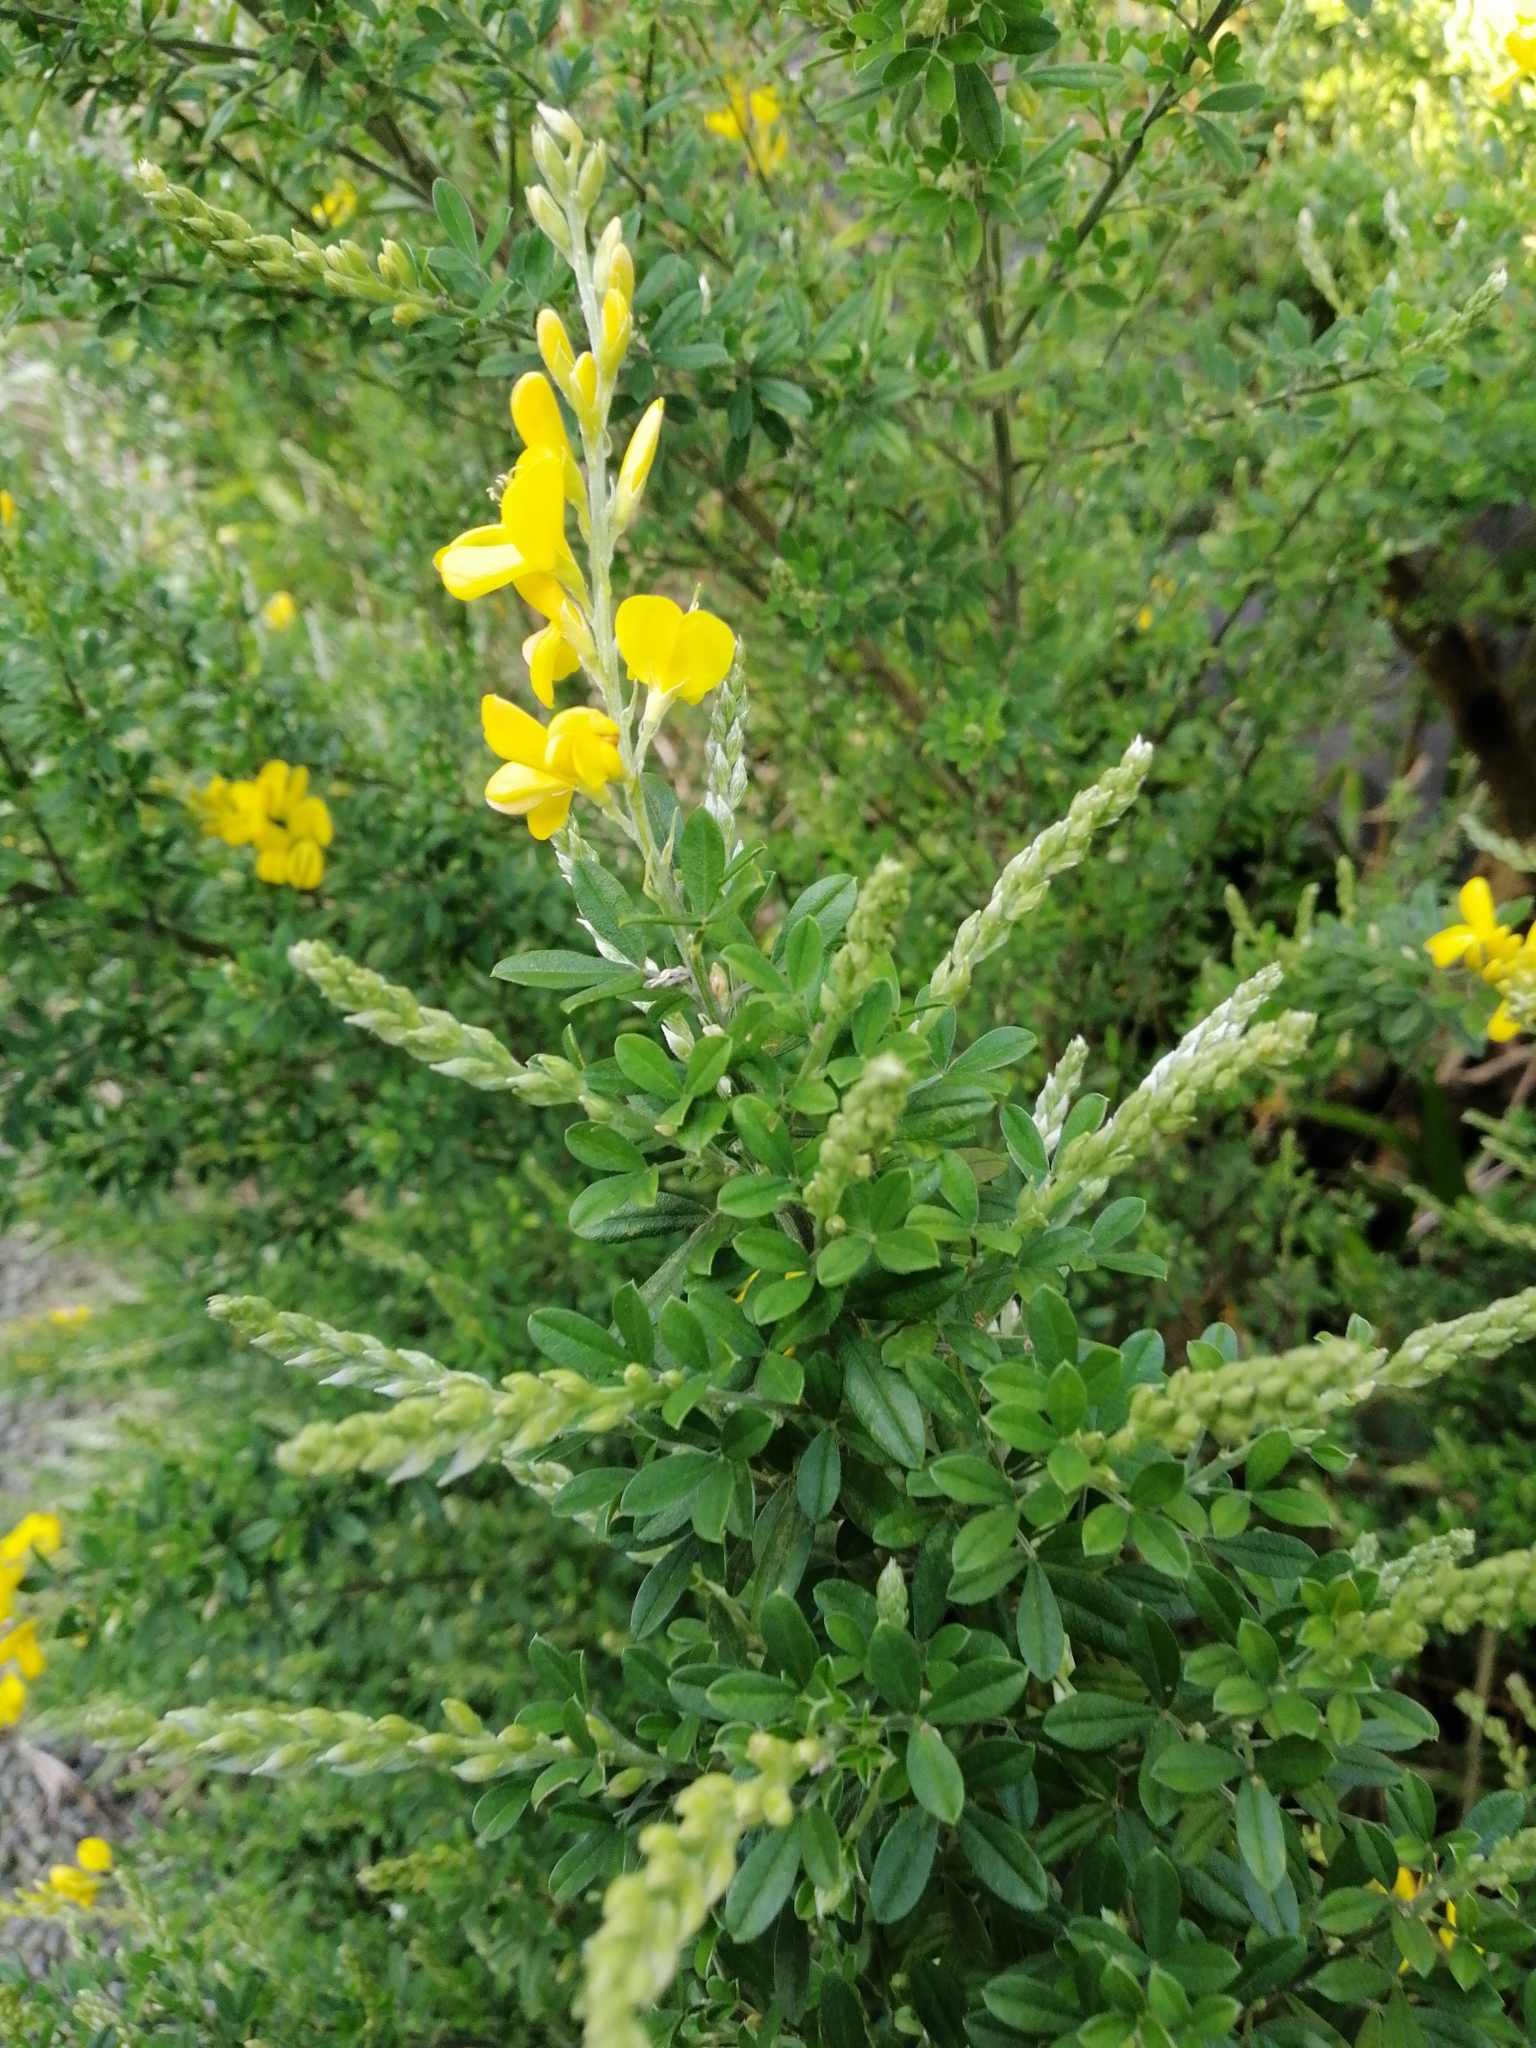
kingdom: Plantae
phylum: Tracheophyta
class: Magnoliopsida
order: Fabales
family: Fabaceae
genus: Genista
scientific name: Genista stenopetala
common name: Leafy broom
